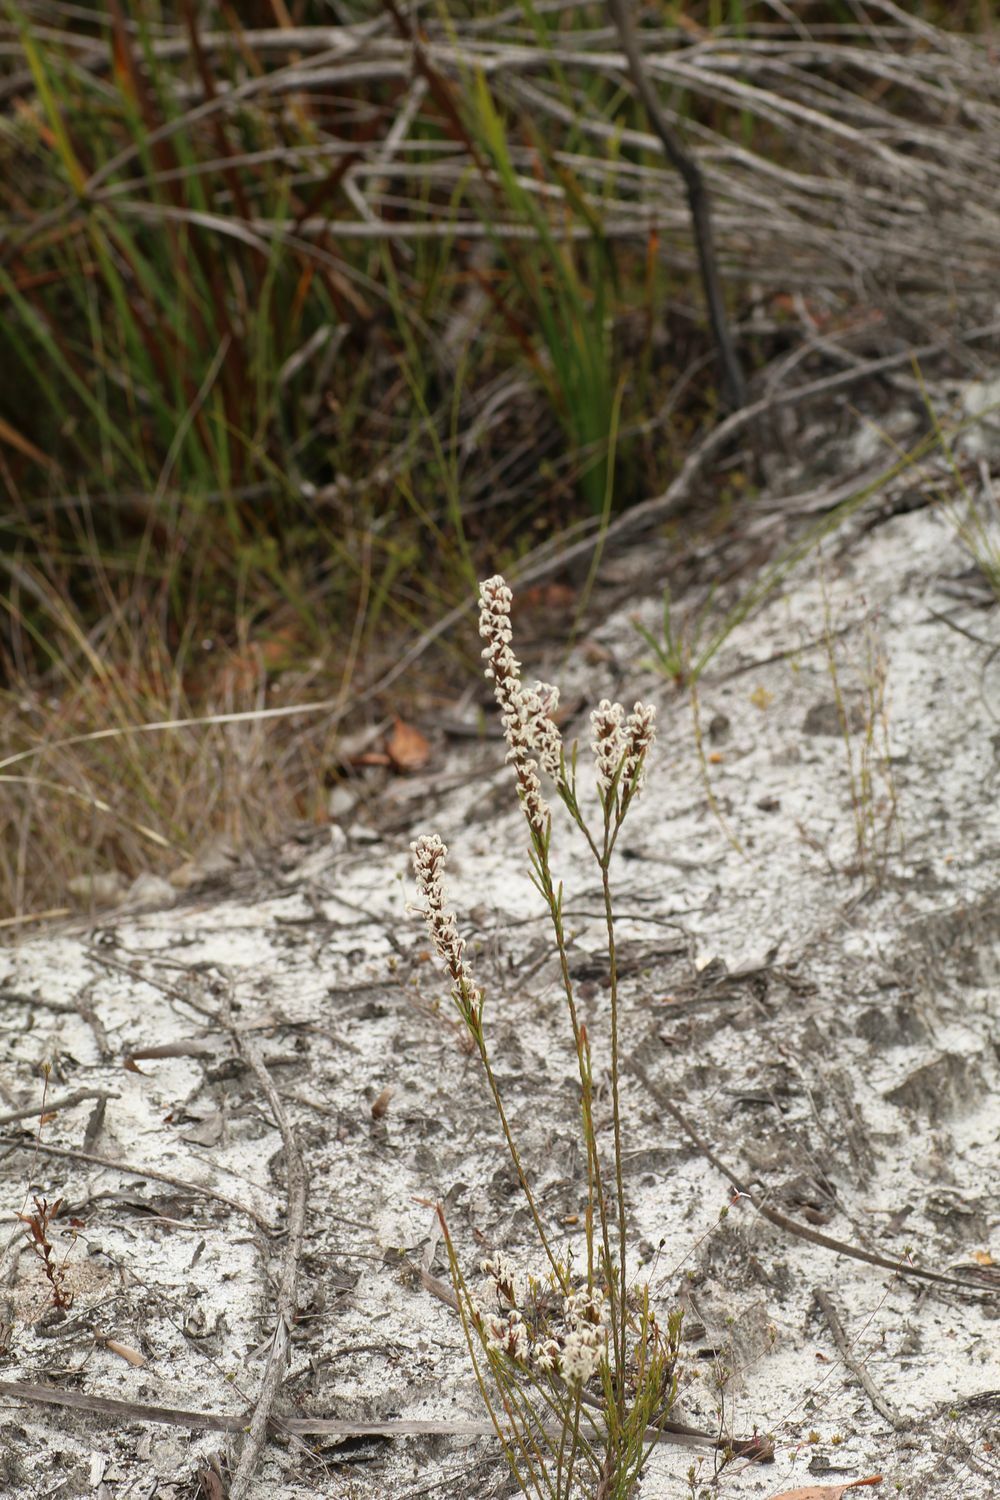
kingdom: Plantae
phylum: Tracheophyta
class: Magnoliopsida
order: Ericales
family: Ericaceae
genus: Lysinema
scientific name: Lysinema conspicuum
